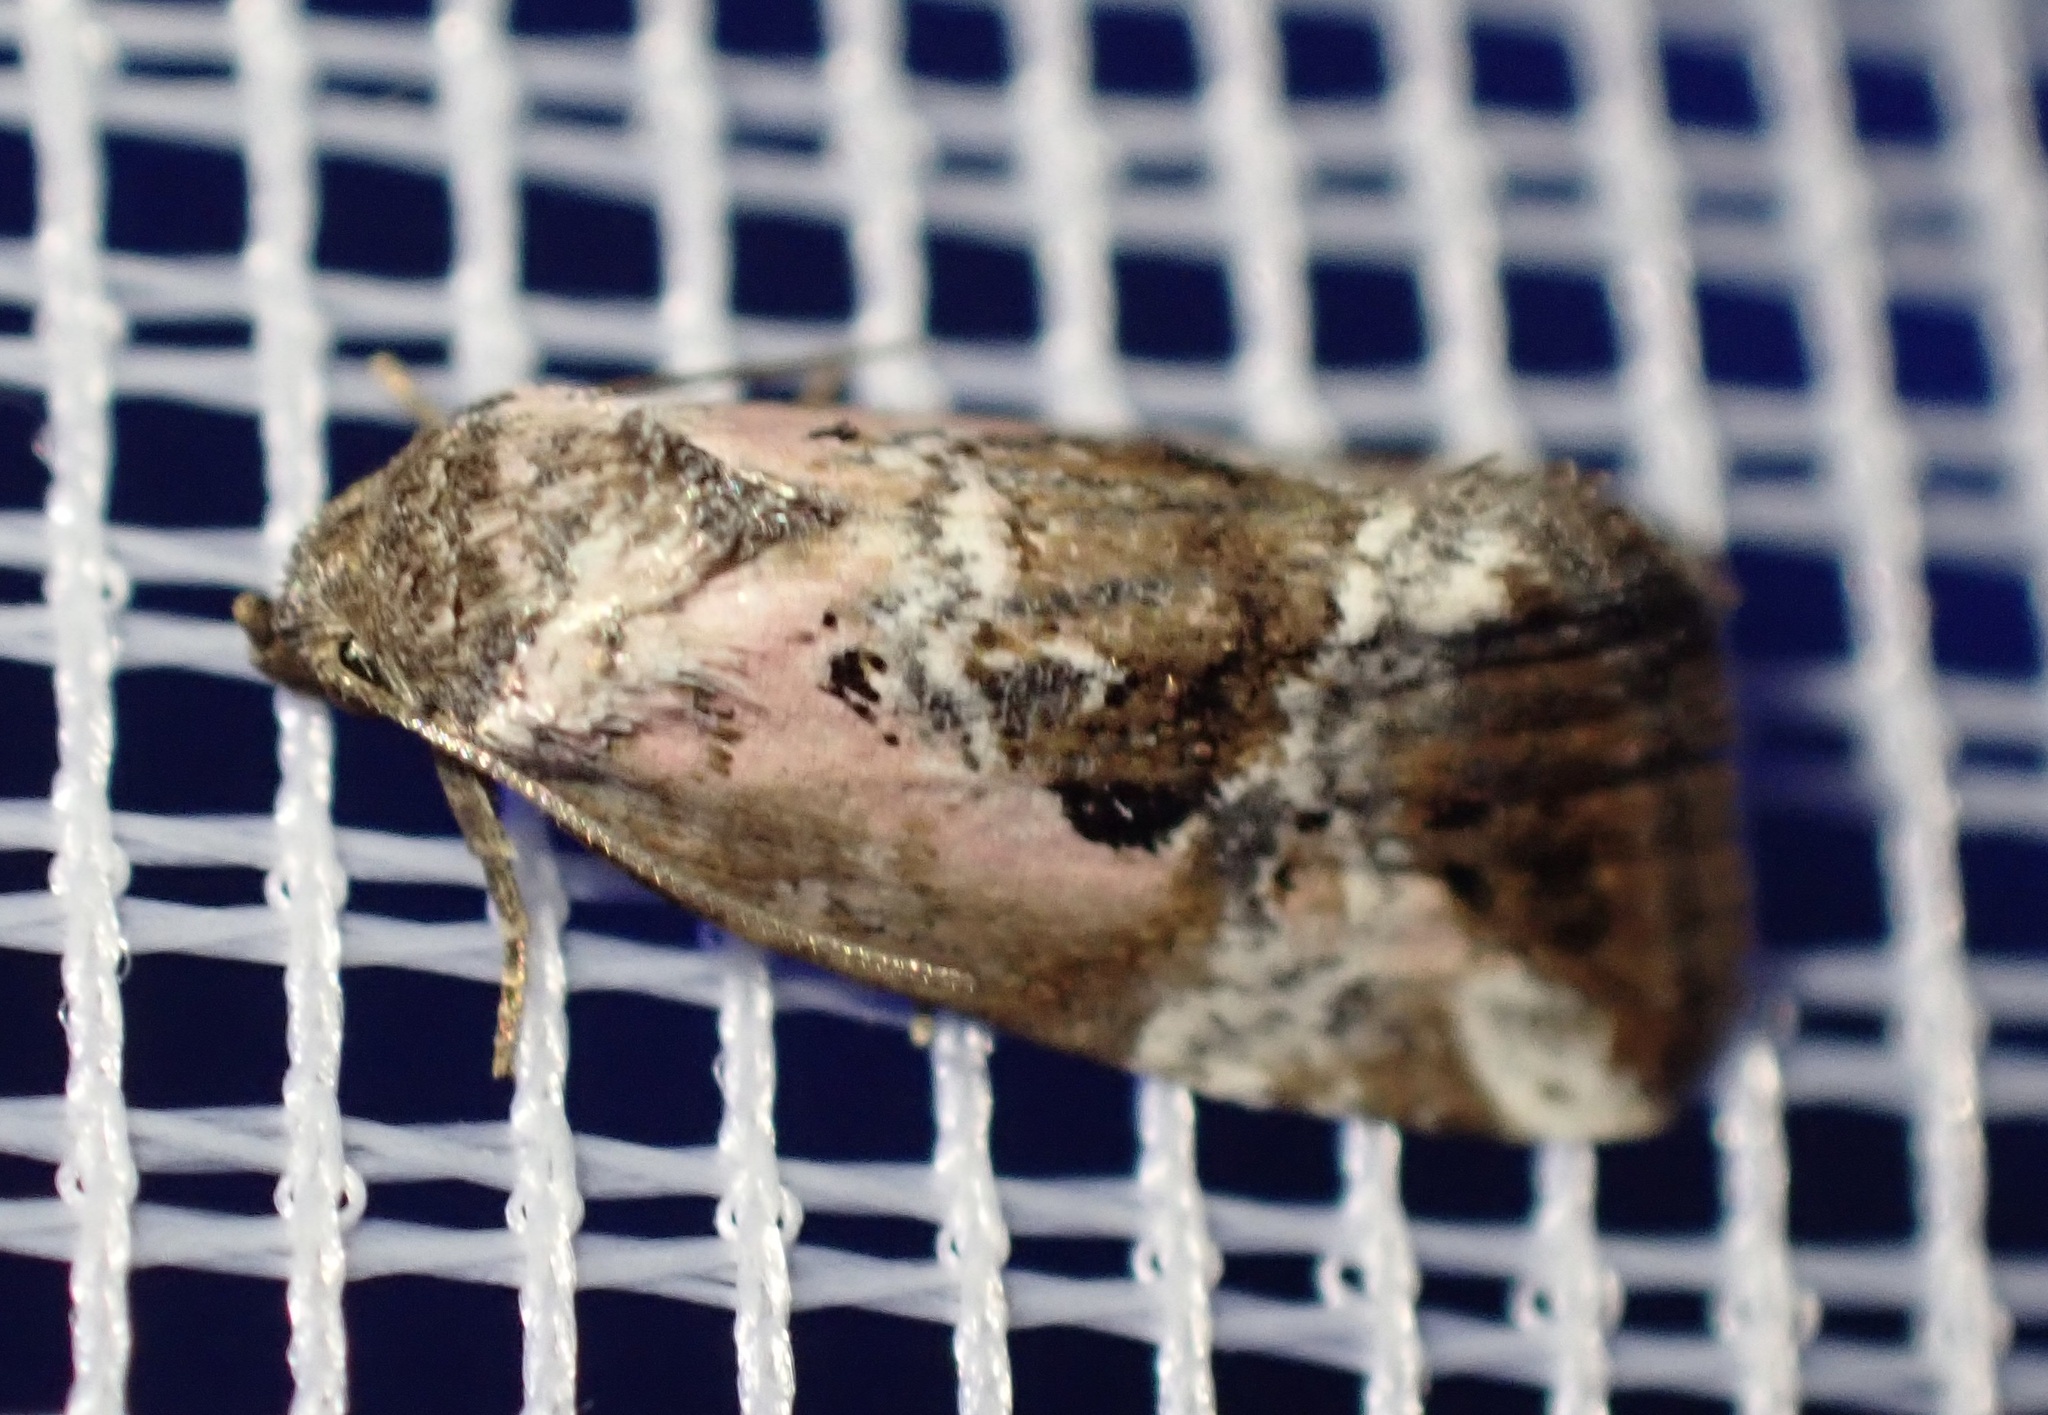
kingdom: Animalia
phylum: Arthropoda
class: Insecta
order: Lepidoptera
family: Noctuidae
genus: Elaphria
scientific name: Elaphria venustula
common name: Rosy marbled
